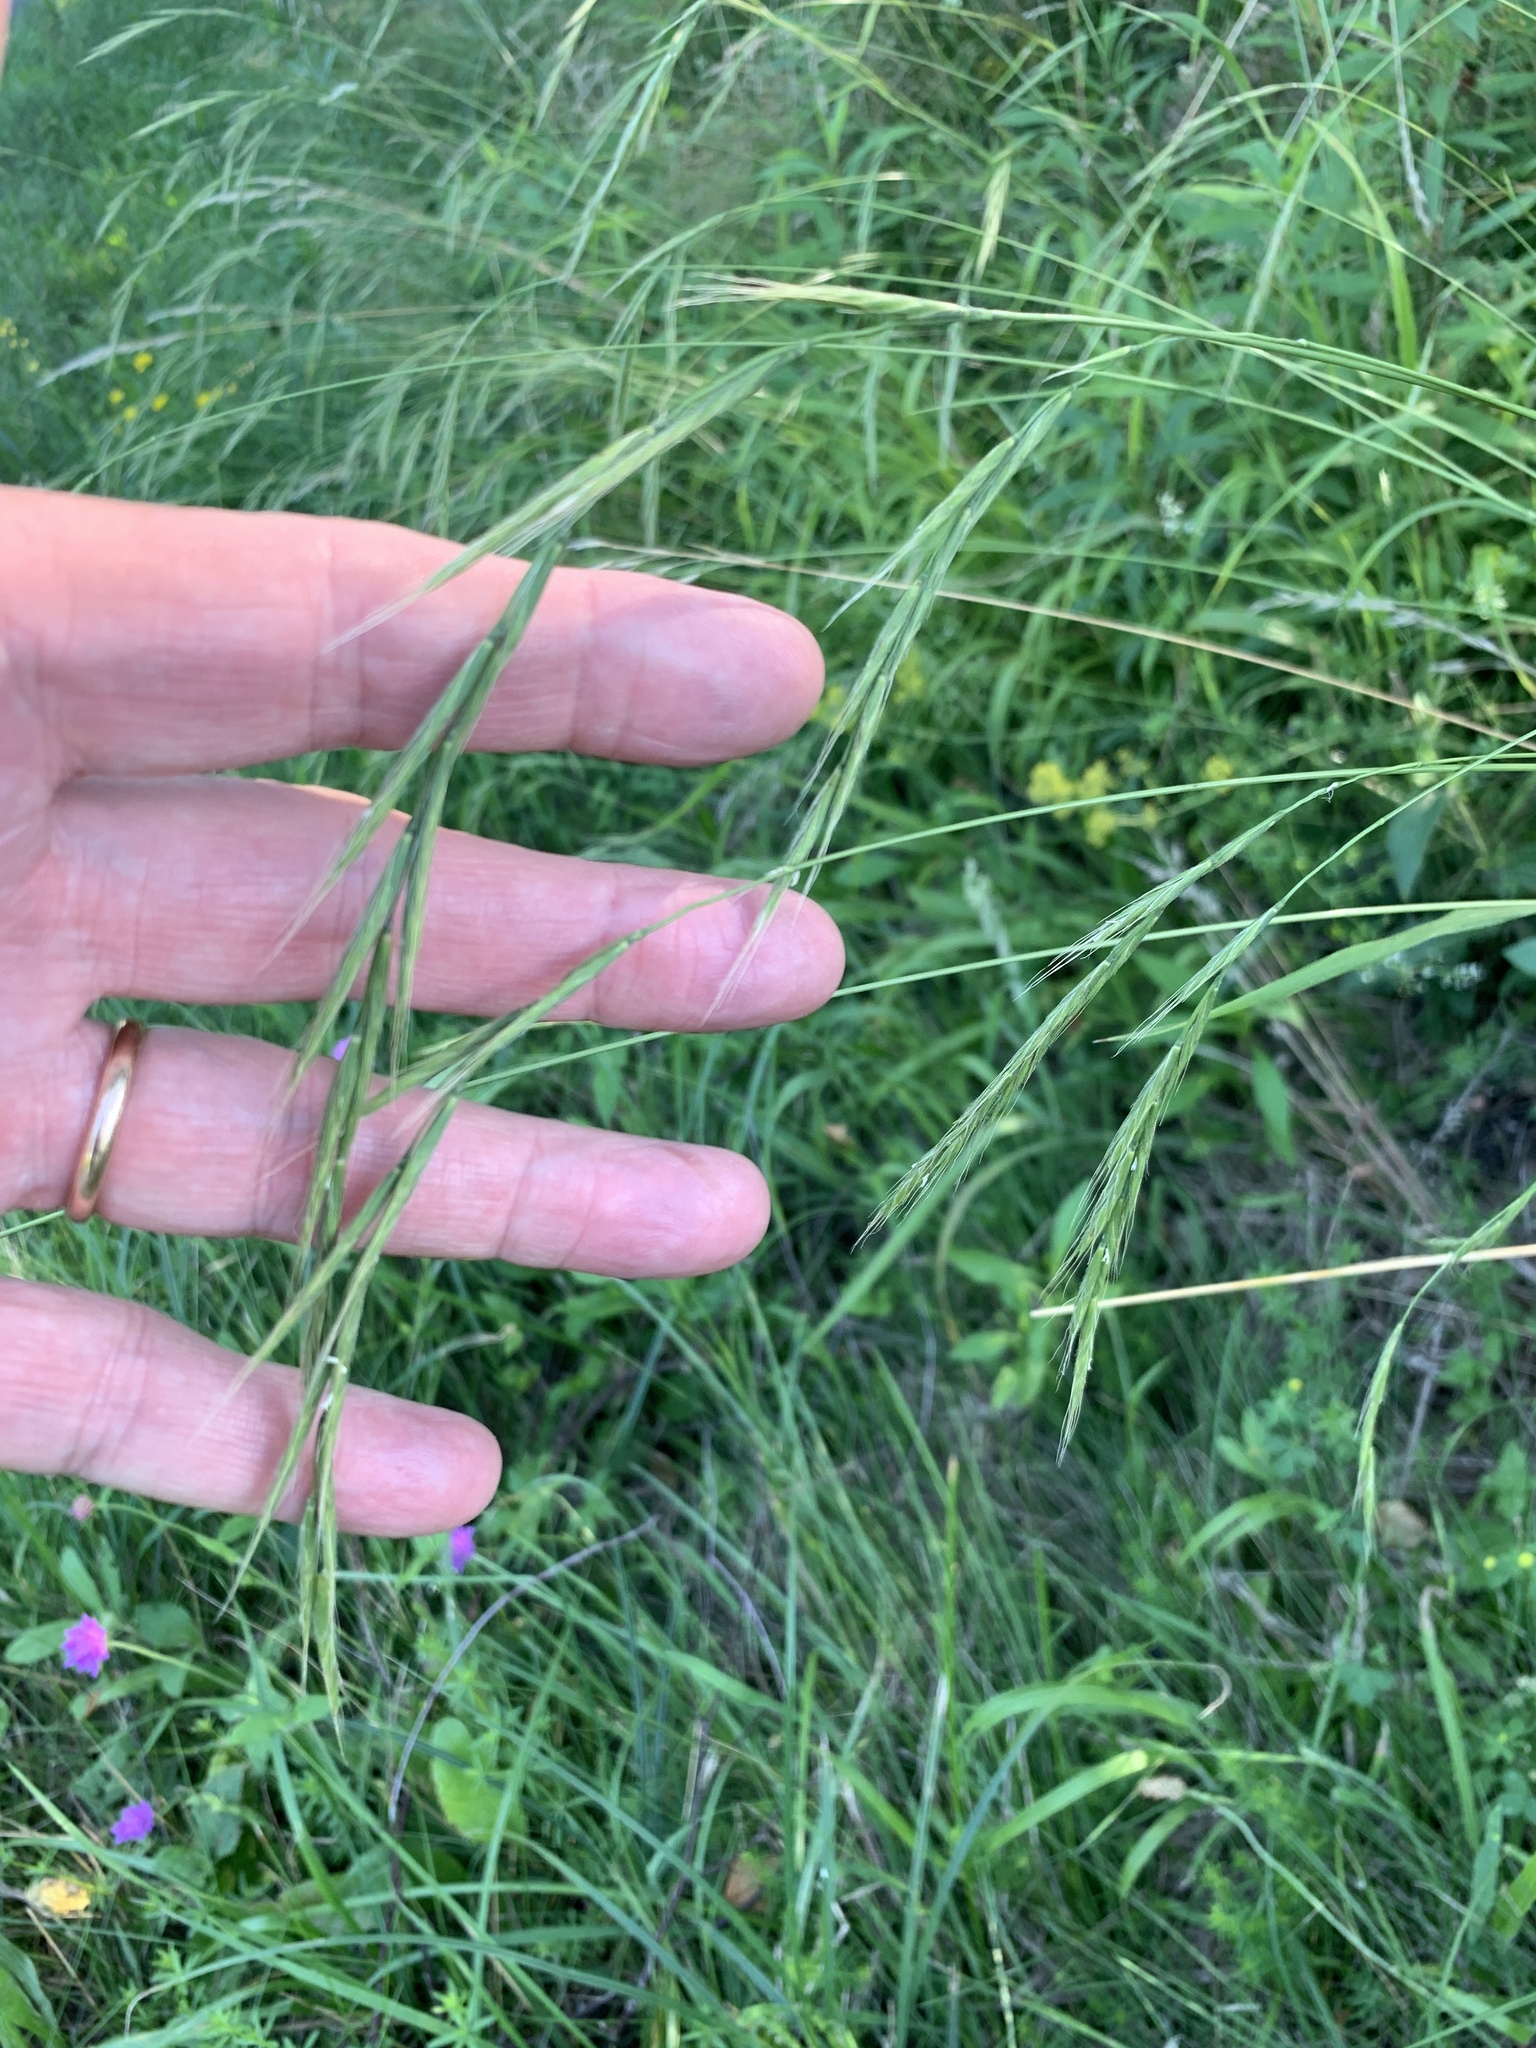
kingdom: Plantae
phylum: Tracheophyta
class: Liliopsida
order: Poales
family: Poaceae
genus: Brachypodium
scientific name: Brachypodium pinnatum
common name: Tor grass
